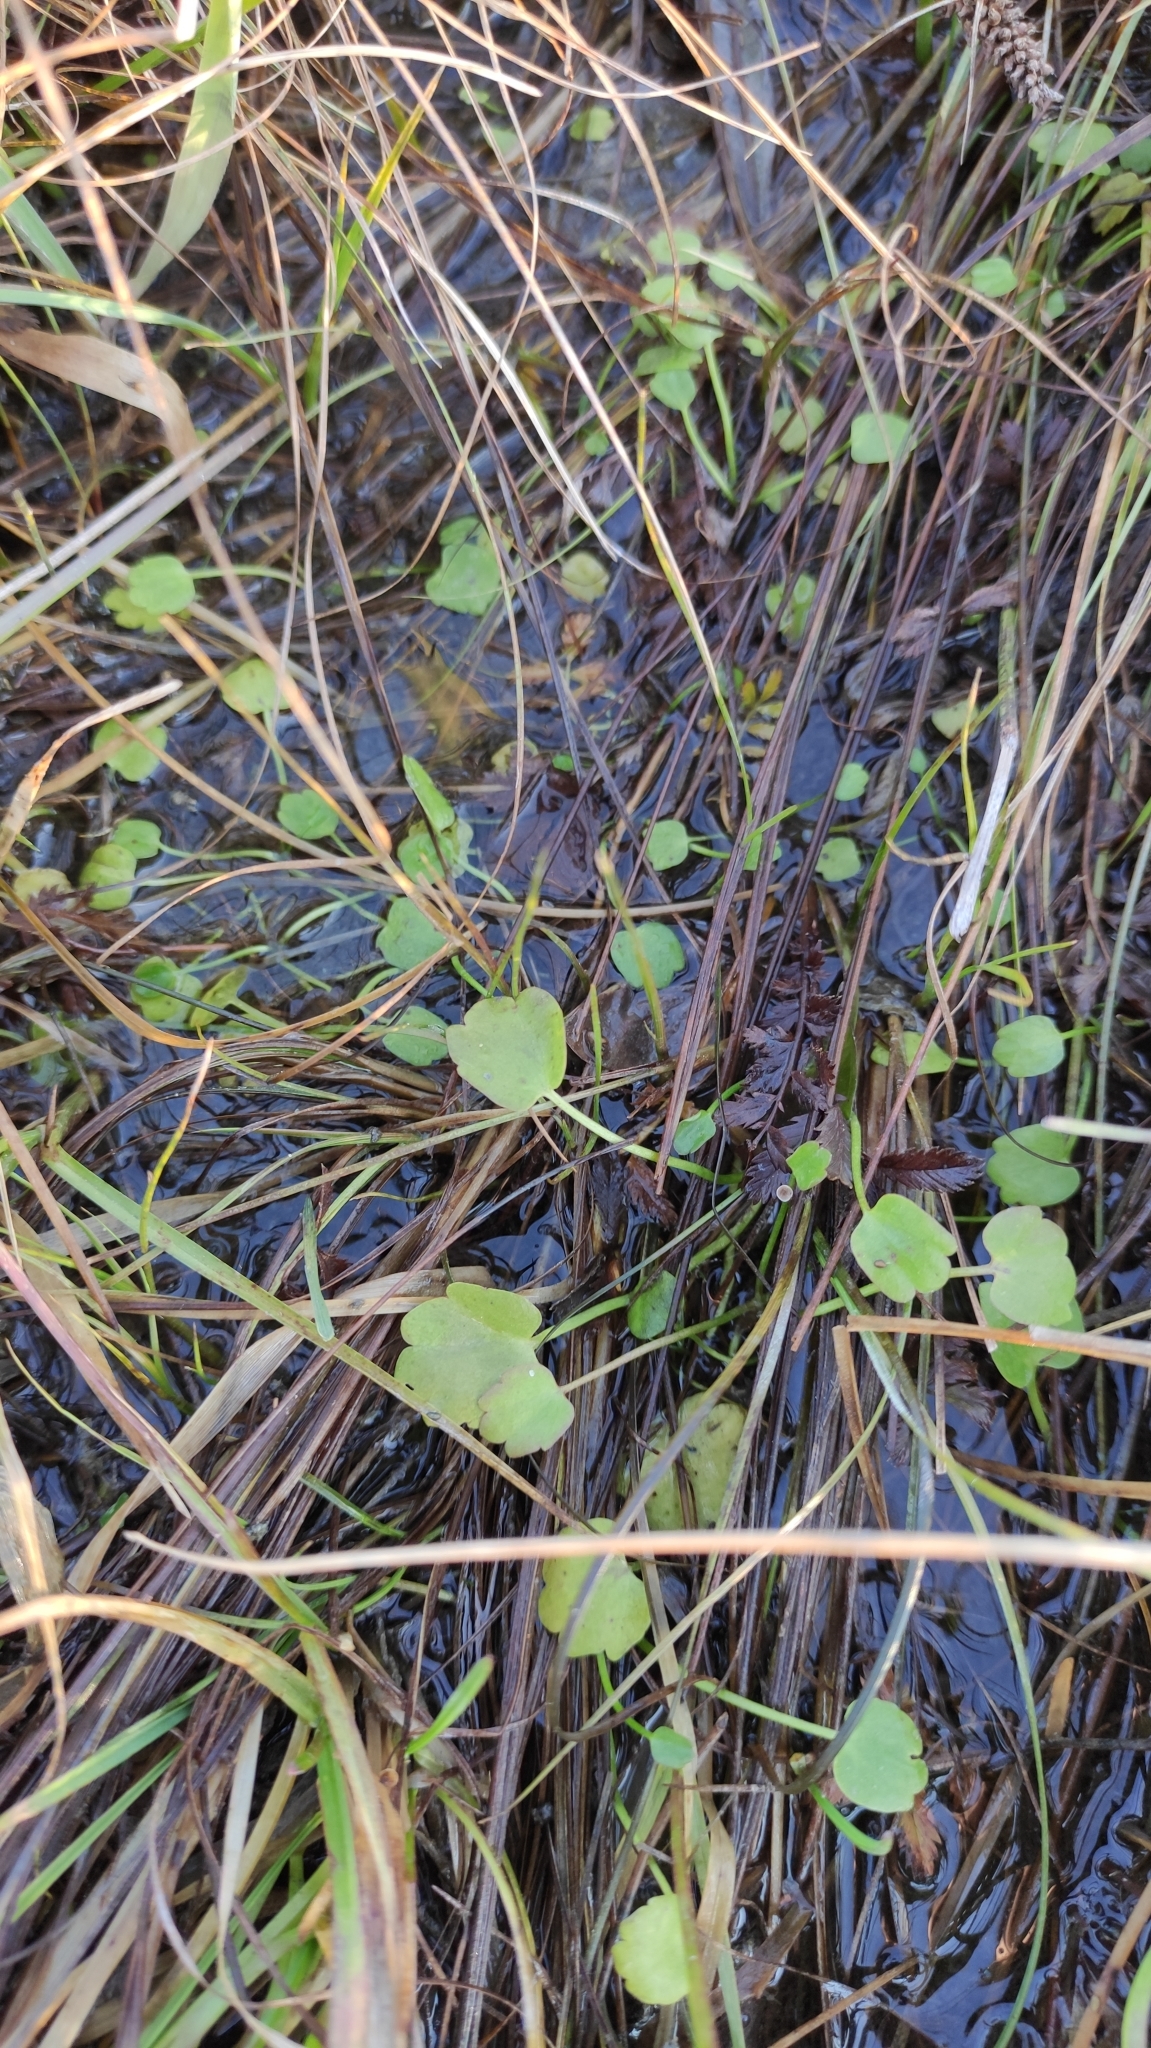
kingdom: Plantae
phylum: Tracheophyta
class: Magnoliopsida
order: Ranunculales
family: Ranunculaceae
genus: Halerpestes
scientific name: Halerpestes sarmentosus
